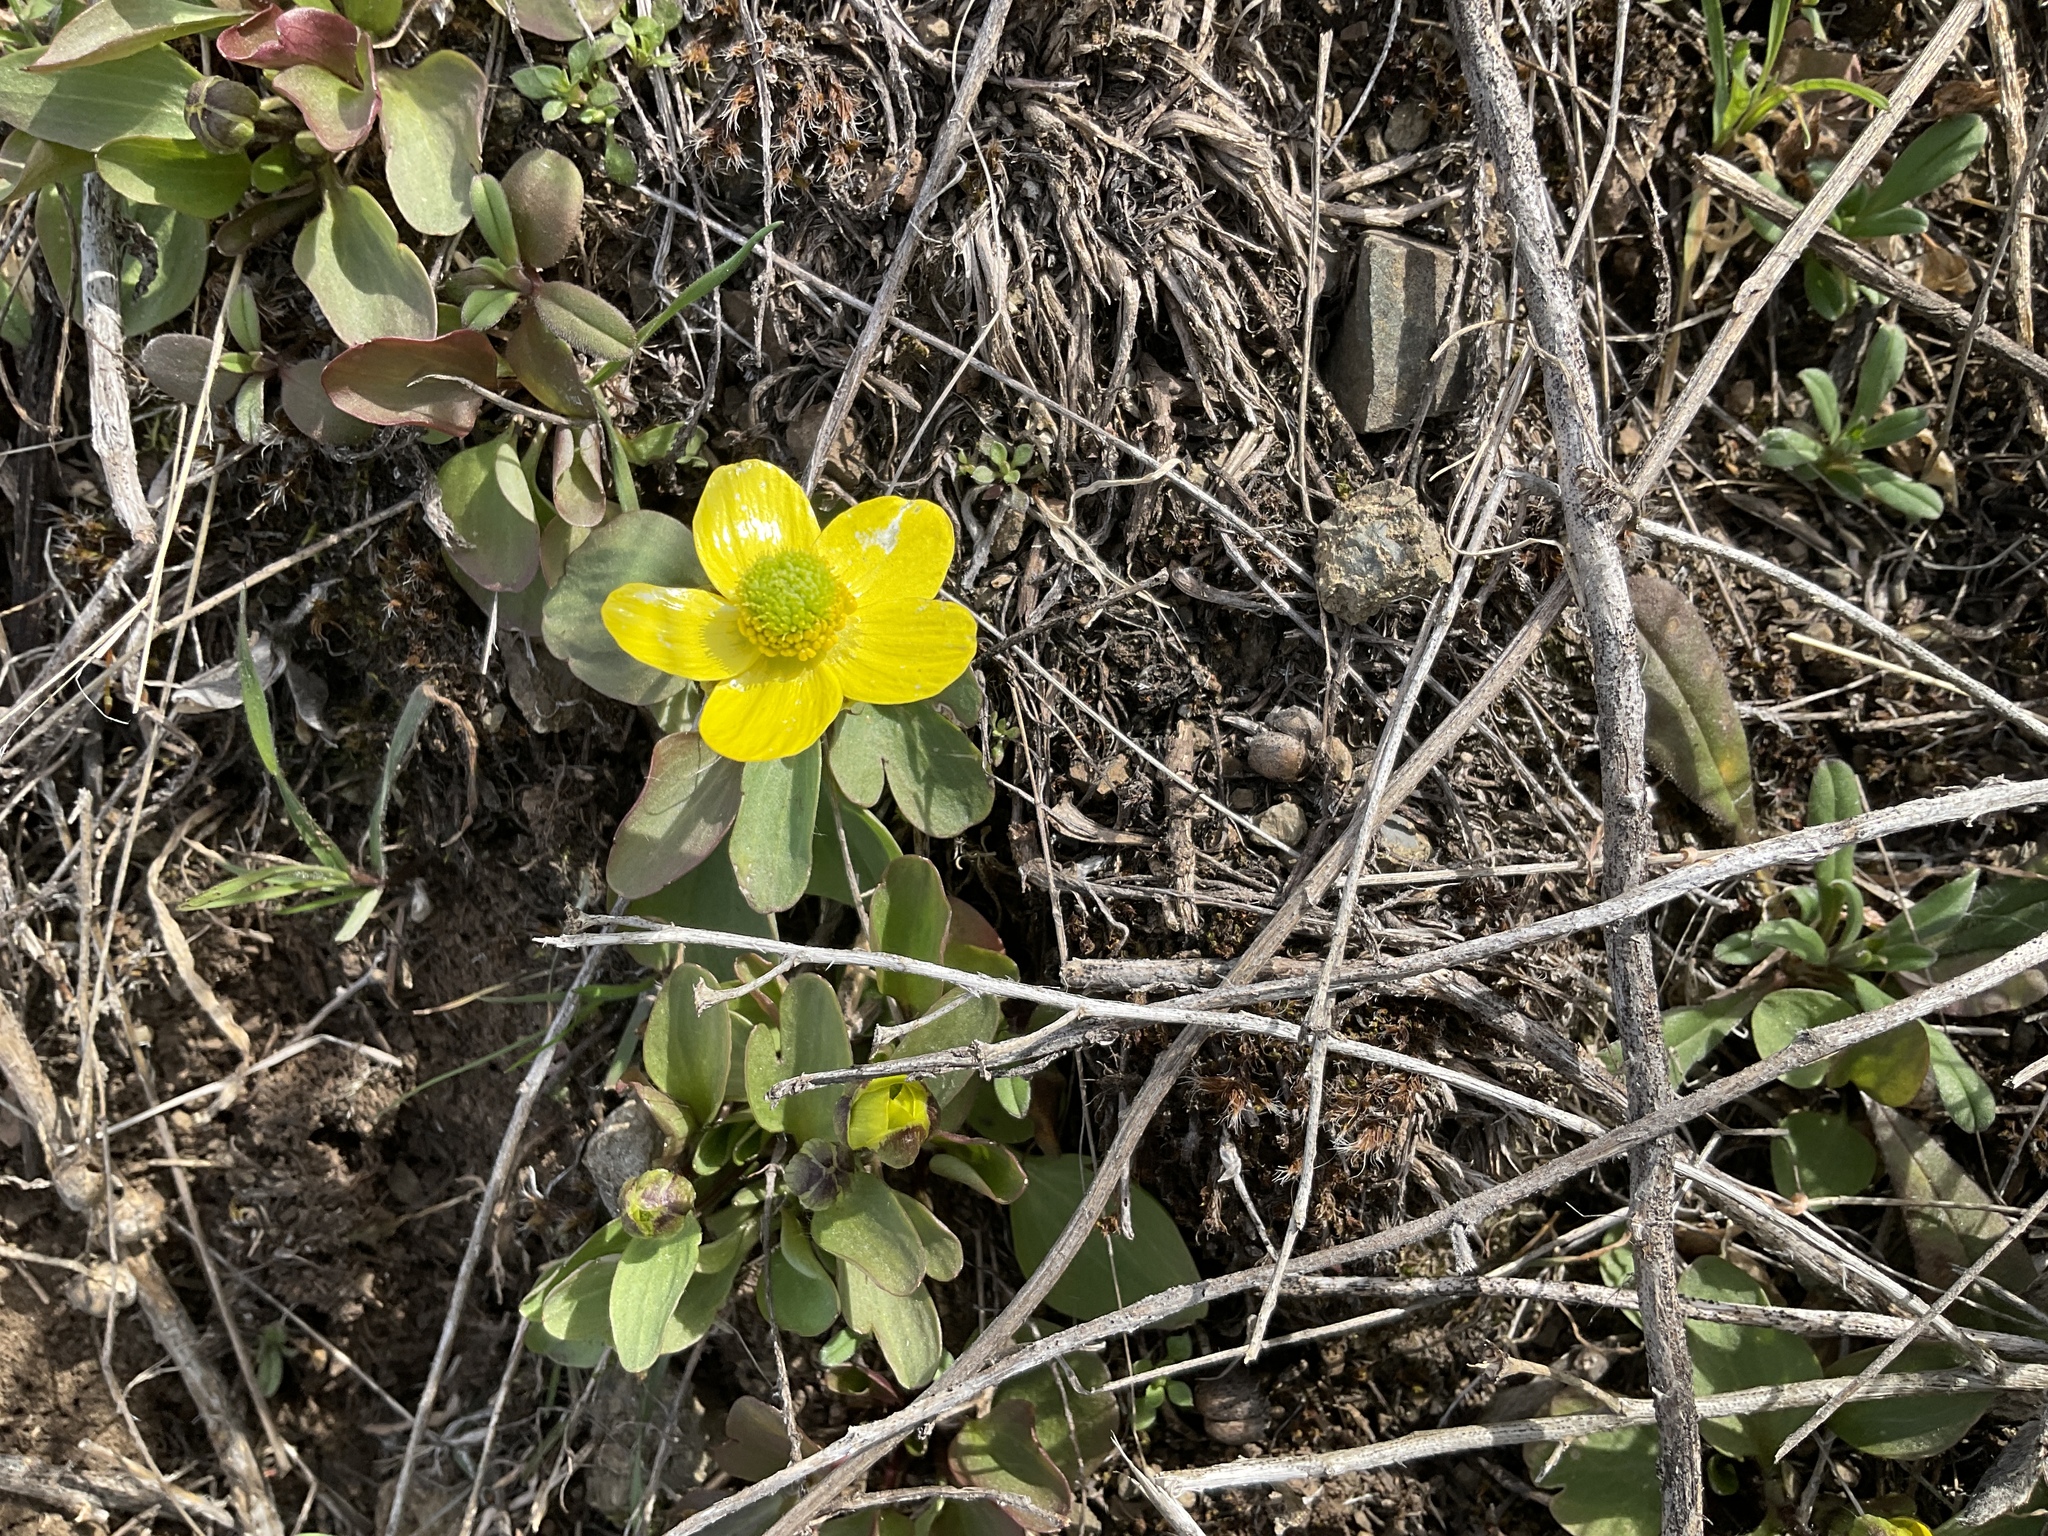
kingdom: Plantae
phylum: Tracheophyta
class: Magnoliopsida
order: Ranunculales
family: Ranunculaceae
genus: Ranunculus
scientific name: Ranunculus glaberrimus
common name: Sagebrush buttercup
